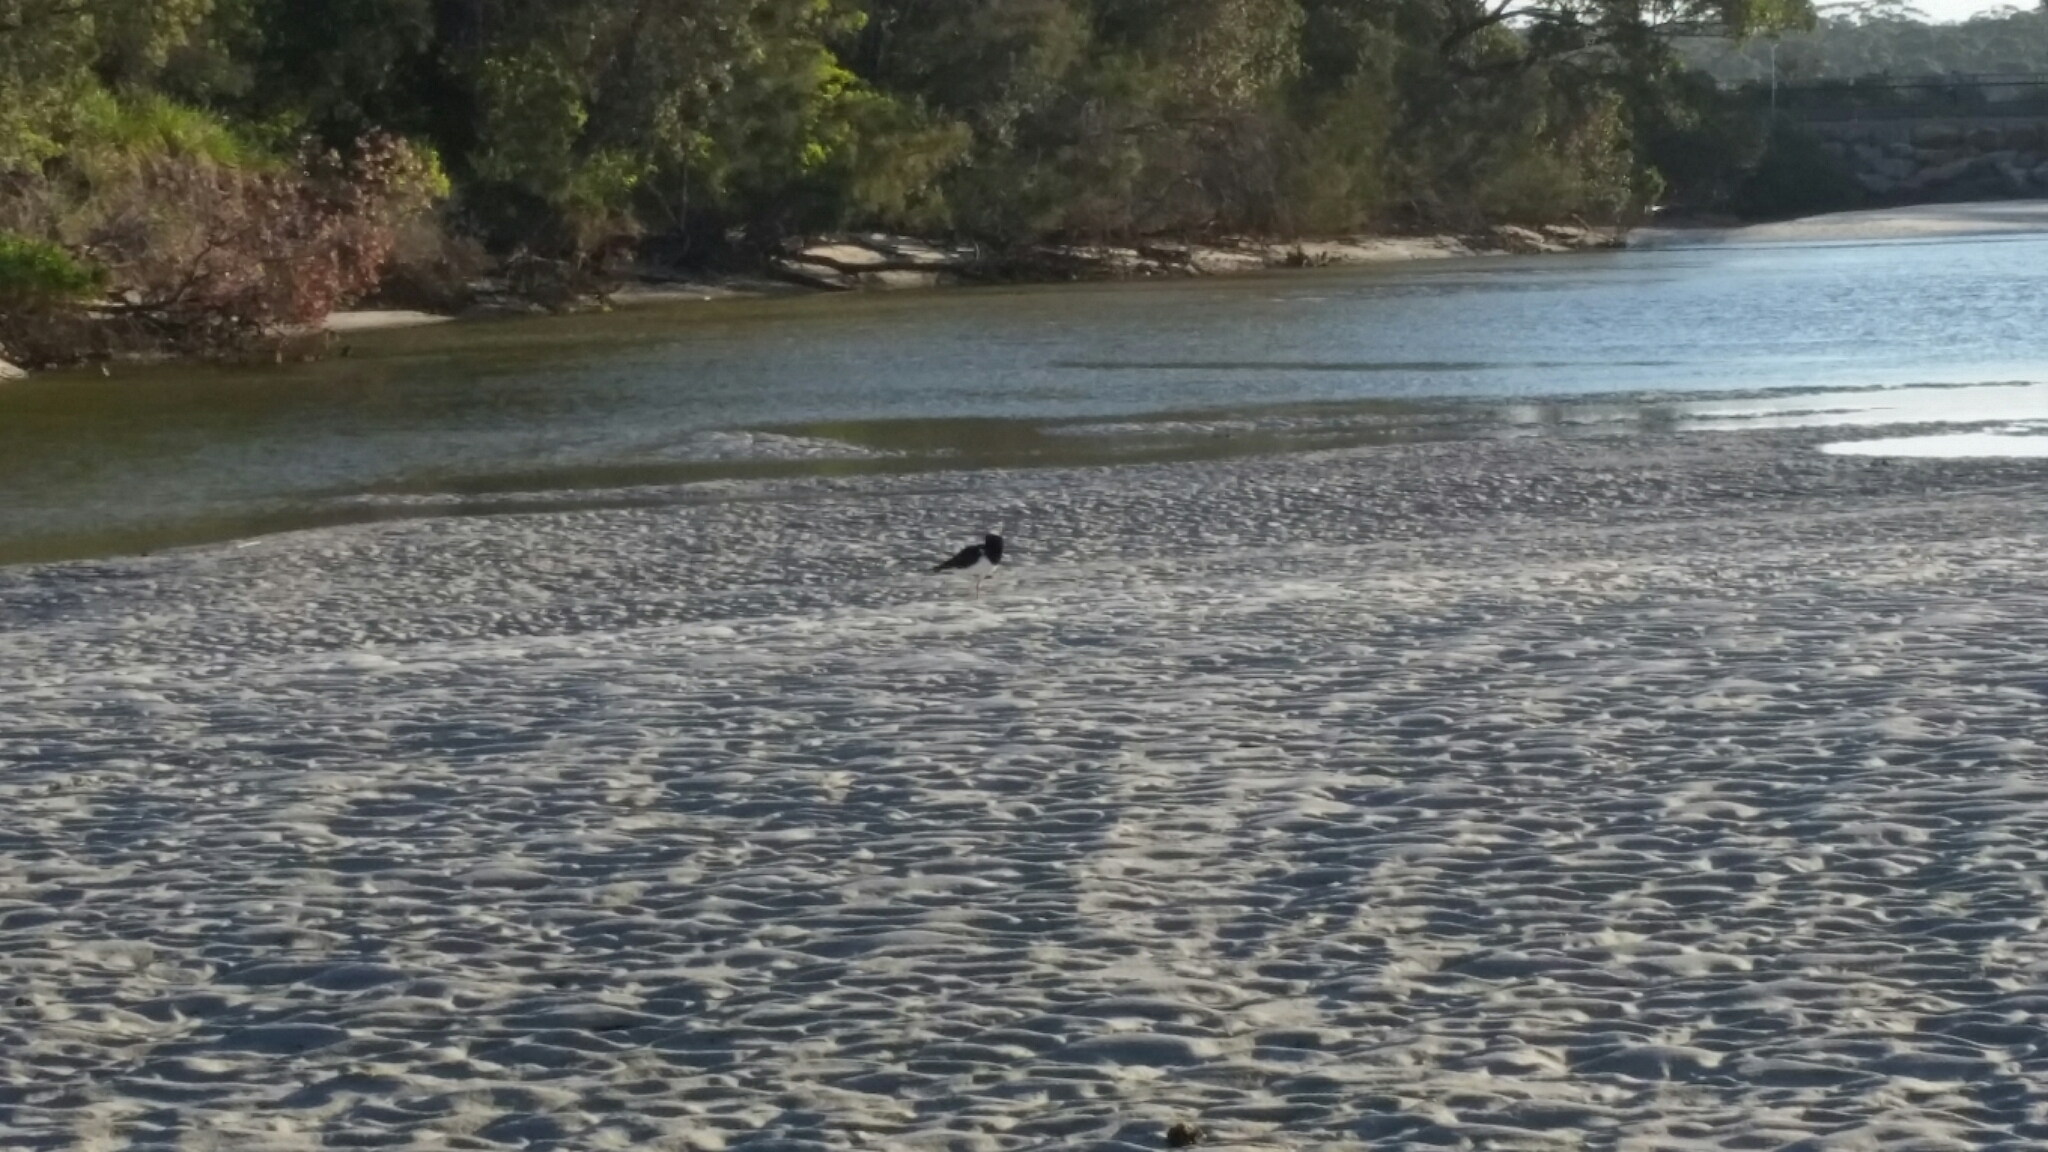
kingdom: Animalia
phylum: Chordata
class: Aves
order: Charadriiformes
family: Haematopodidae
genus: Haematopus
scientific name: Haematopus longirostris
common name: Pied oystercatcher
